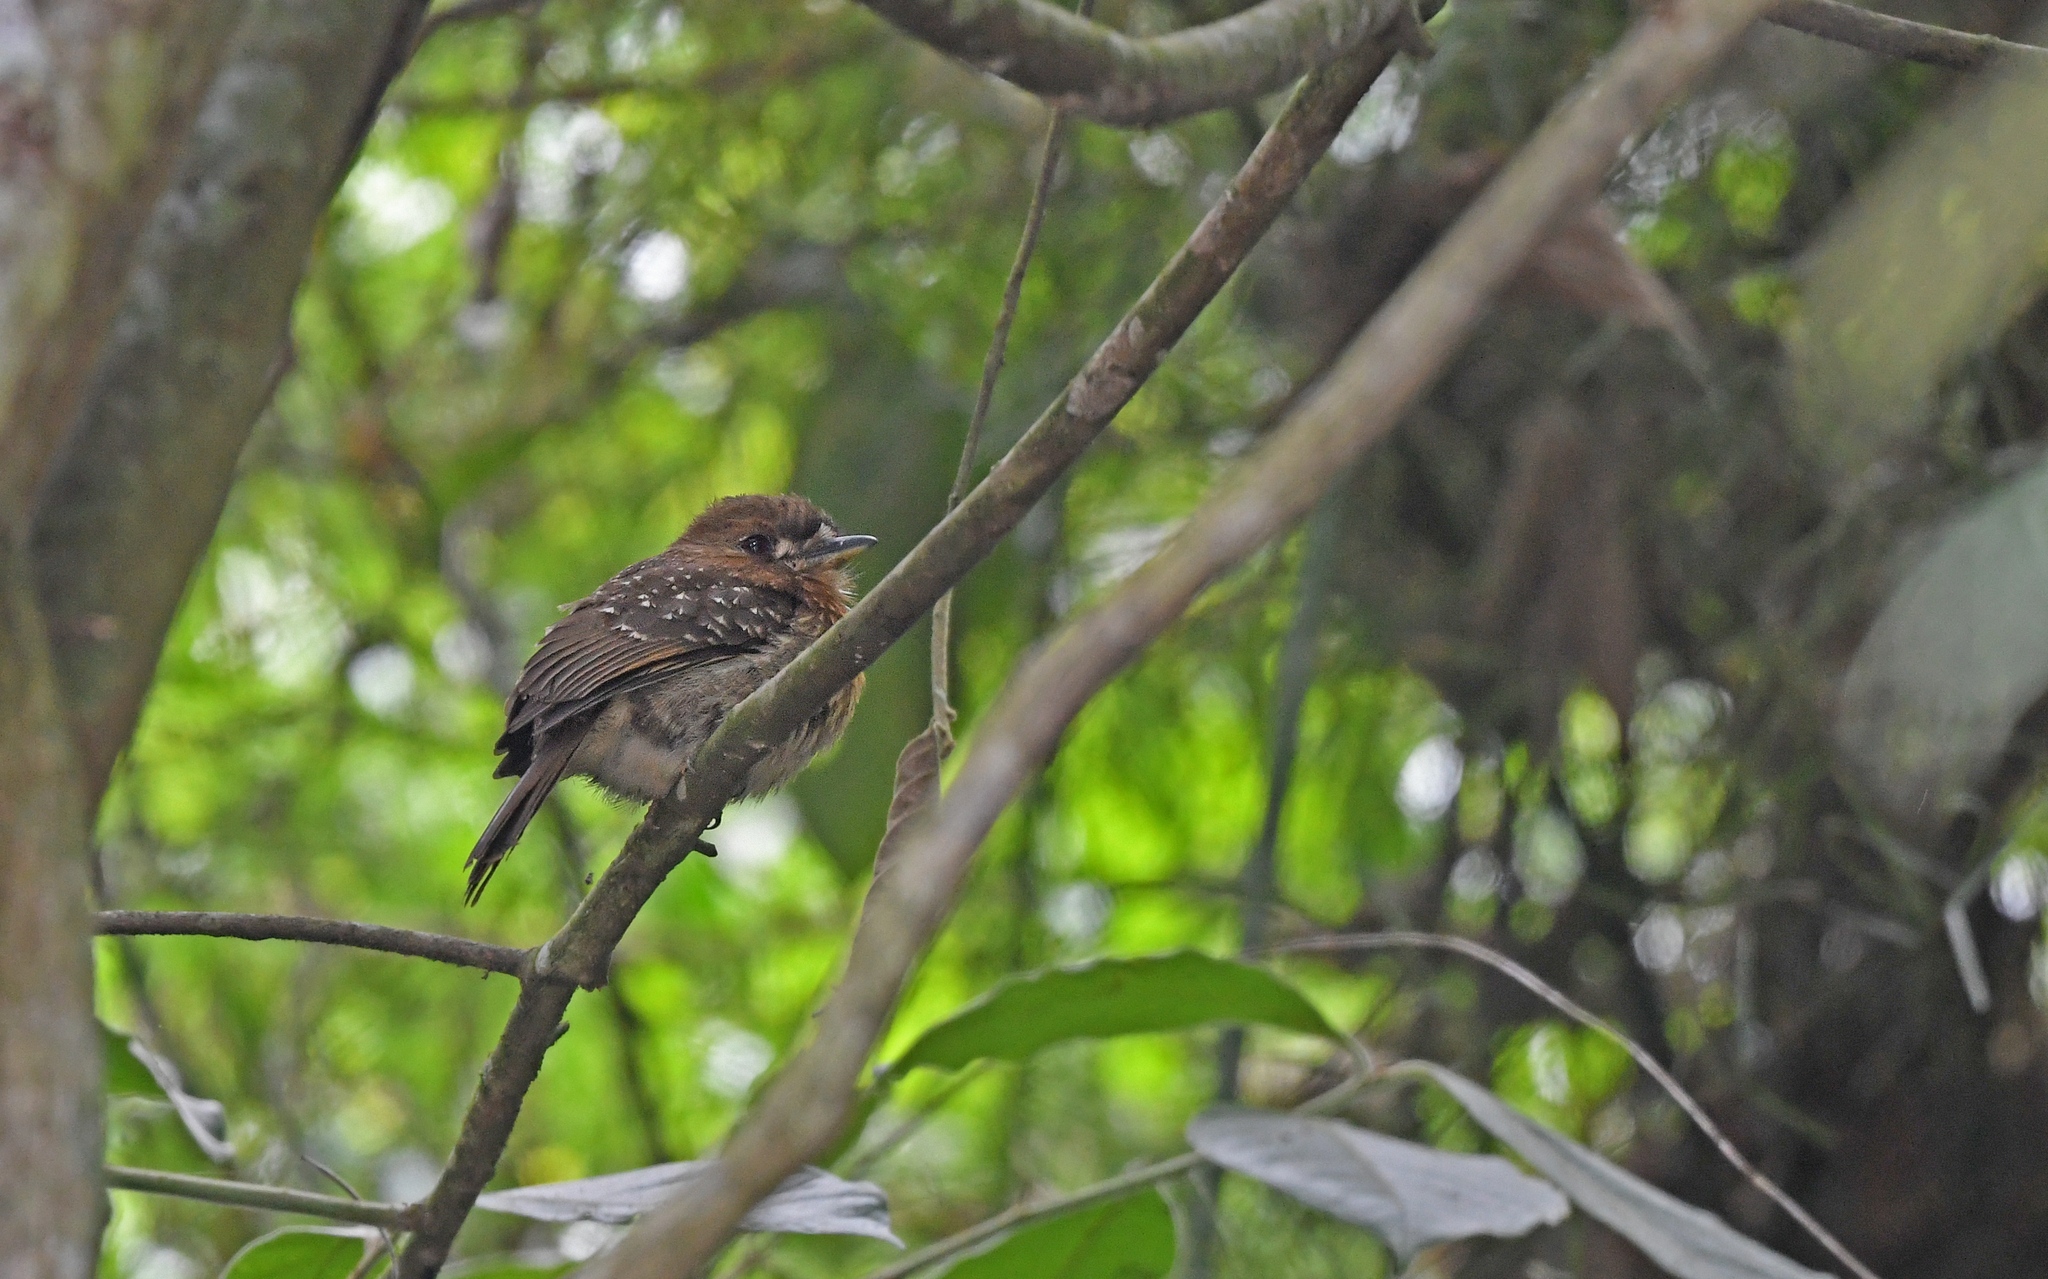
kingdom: Animalia
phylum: Chordata
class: Aves
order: Piciformes
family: Bucconidae
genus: Malacoptila
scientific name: Malacoptila mystacalis
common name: Moustached puffbird
